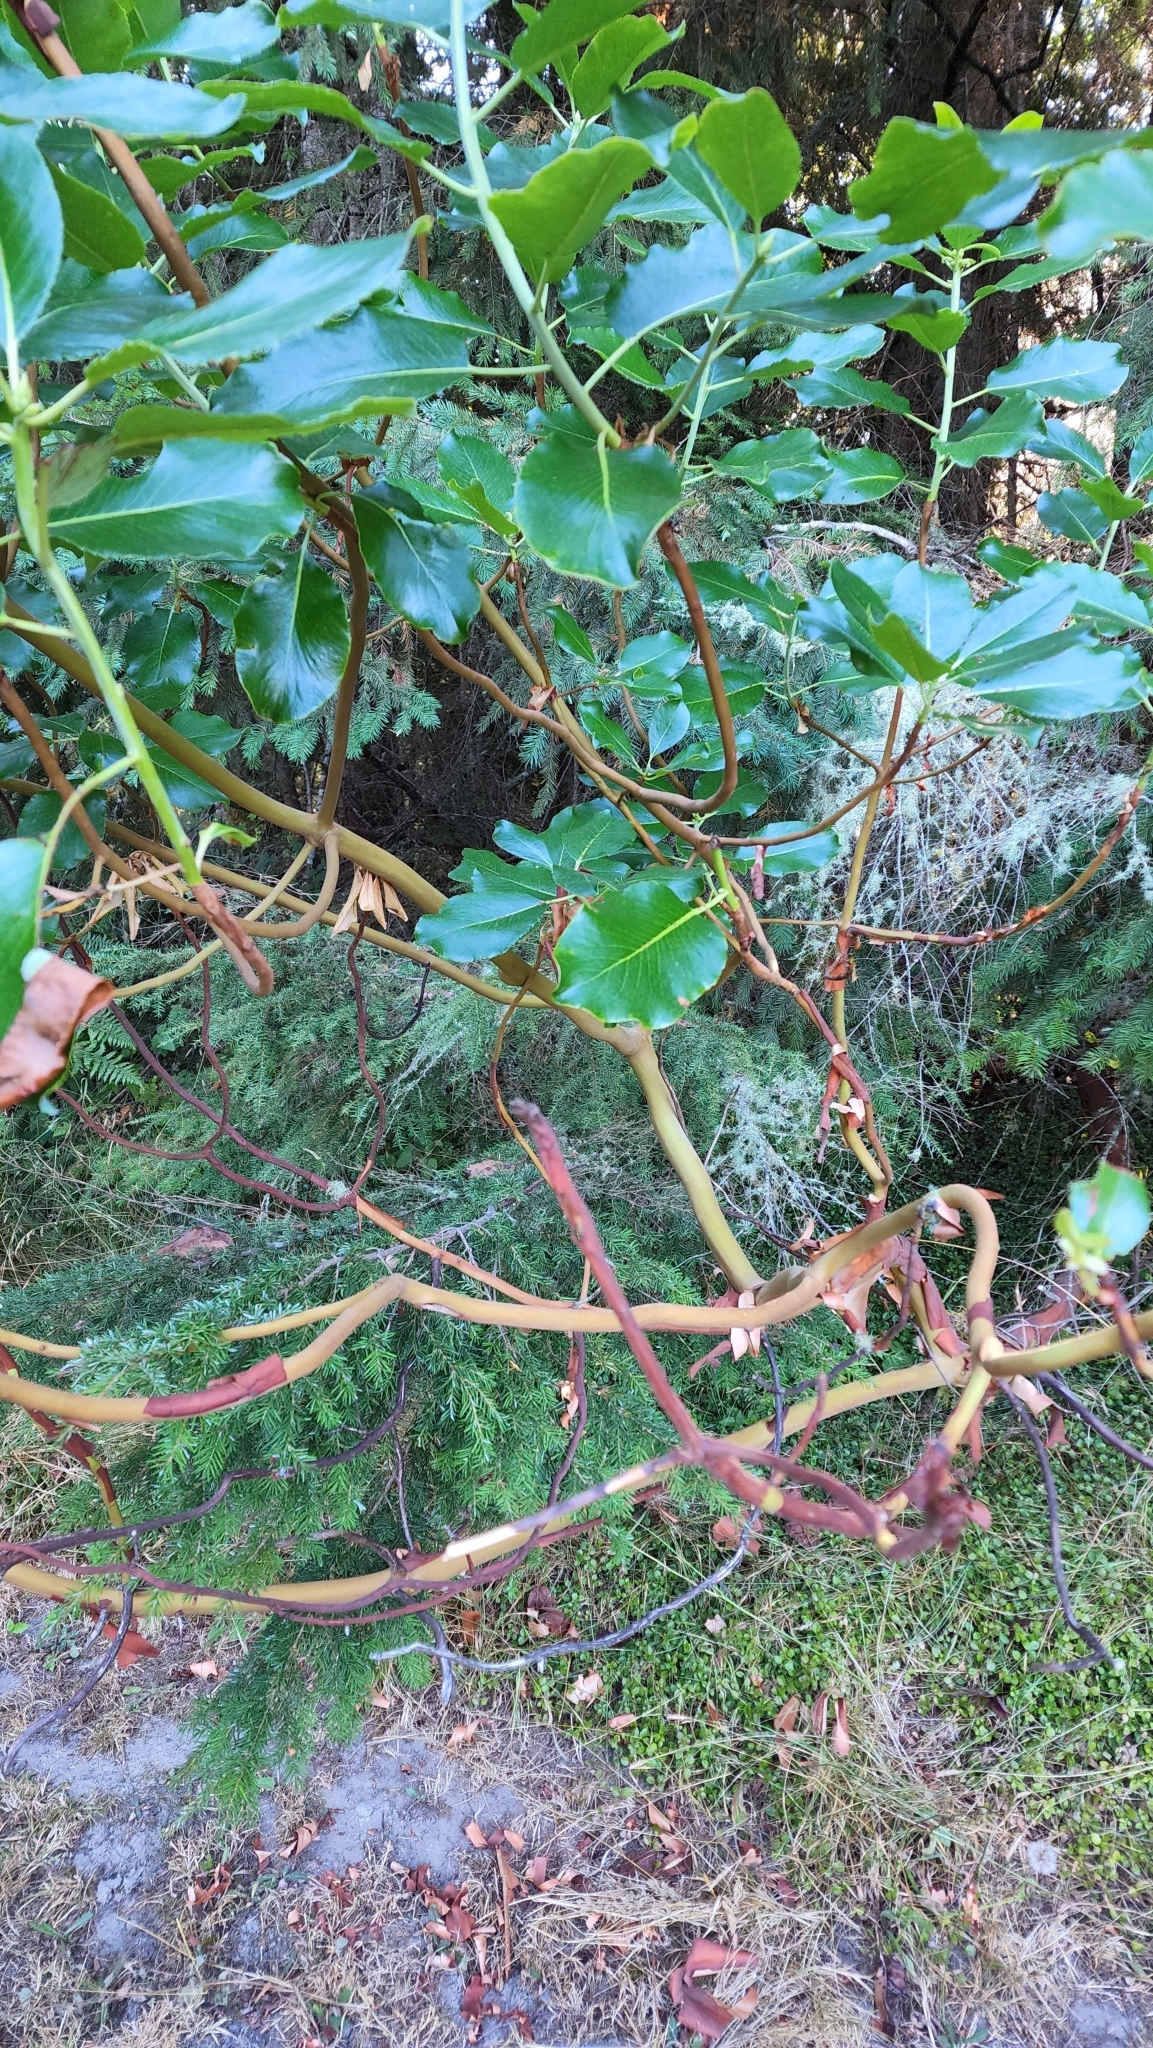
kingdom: Plantae
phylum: Tracheophyta
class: Magnoliopsida
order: Ericales
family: Ericaceae
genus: Arbutus
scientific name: Arbutus menziesii
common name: Pacific madrone
